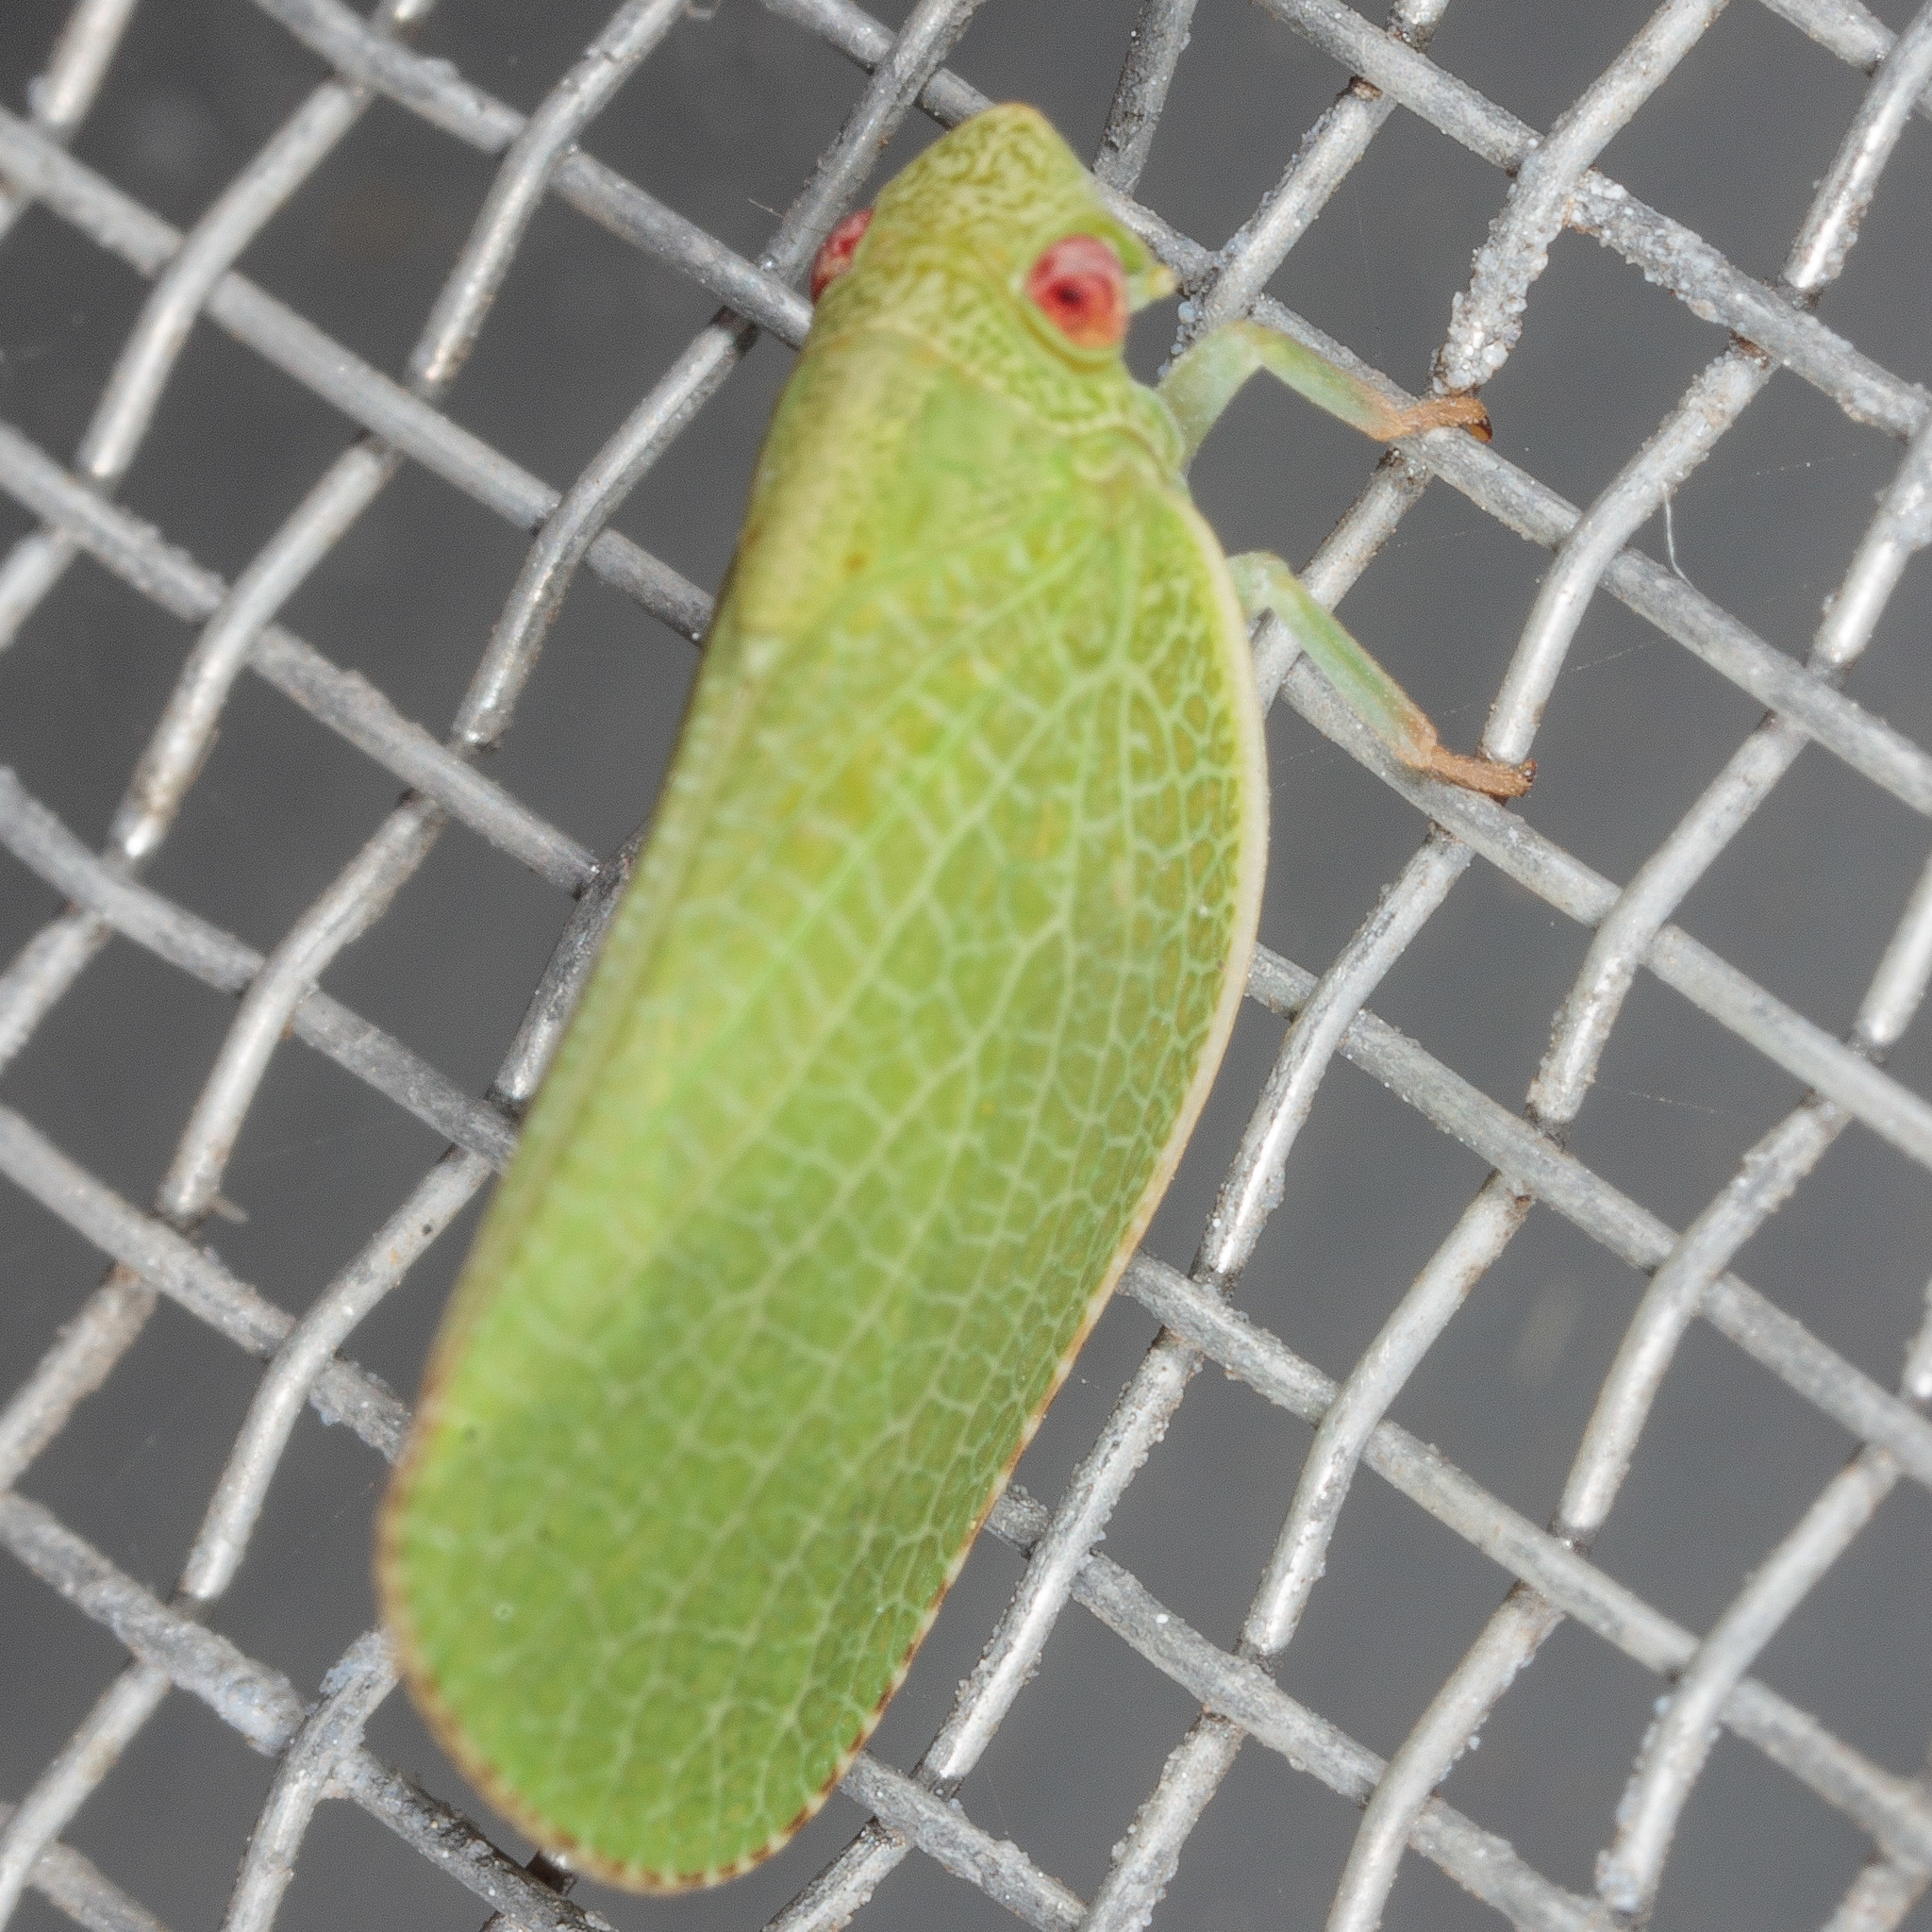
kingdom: Animalia
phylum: Arthropoda
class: Insecta
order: Hemiptera
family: Acanaloniidae
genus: Acanalonia
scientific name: Acanalonia conica
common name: Green cone-headed planthopper
